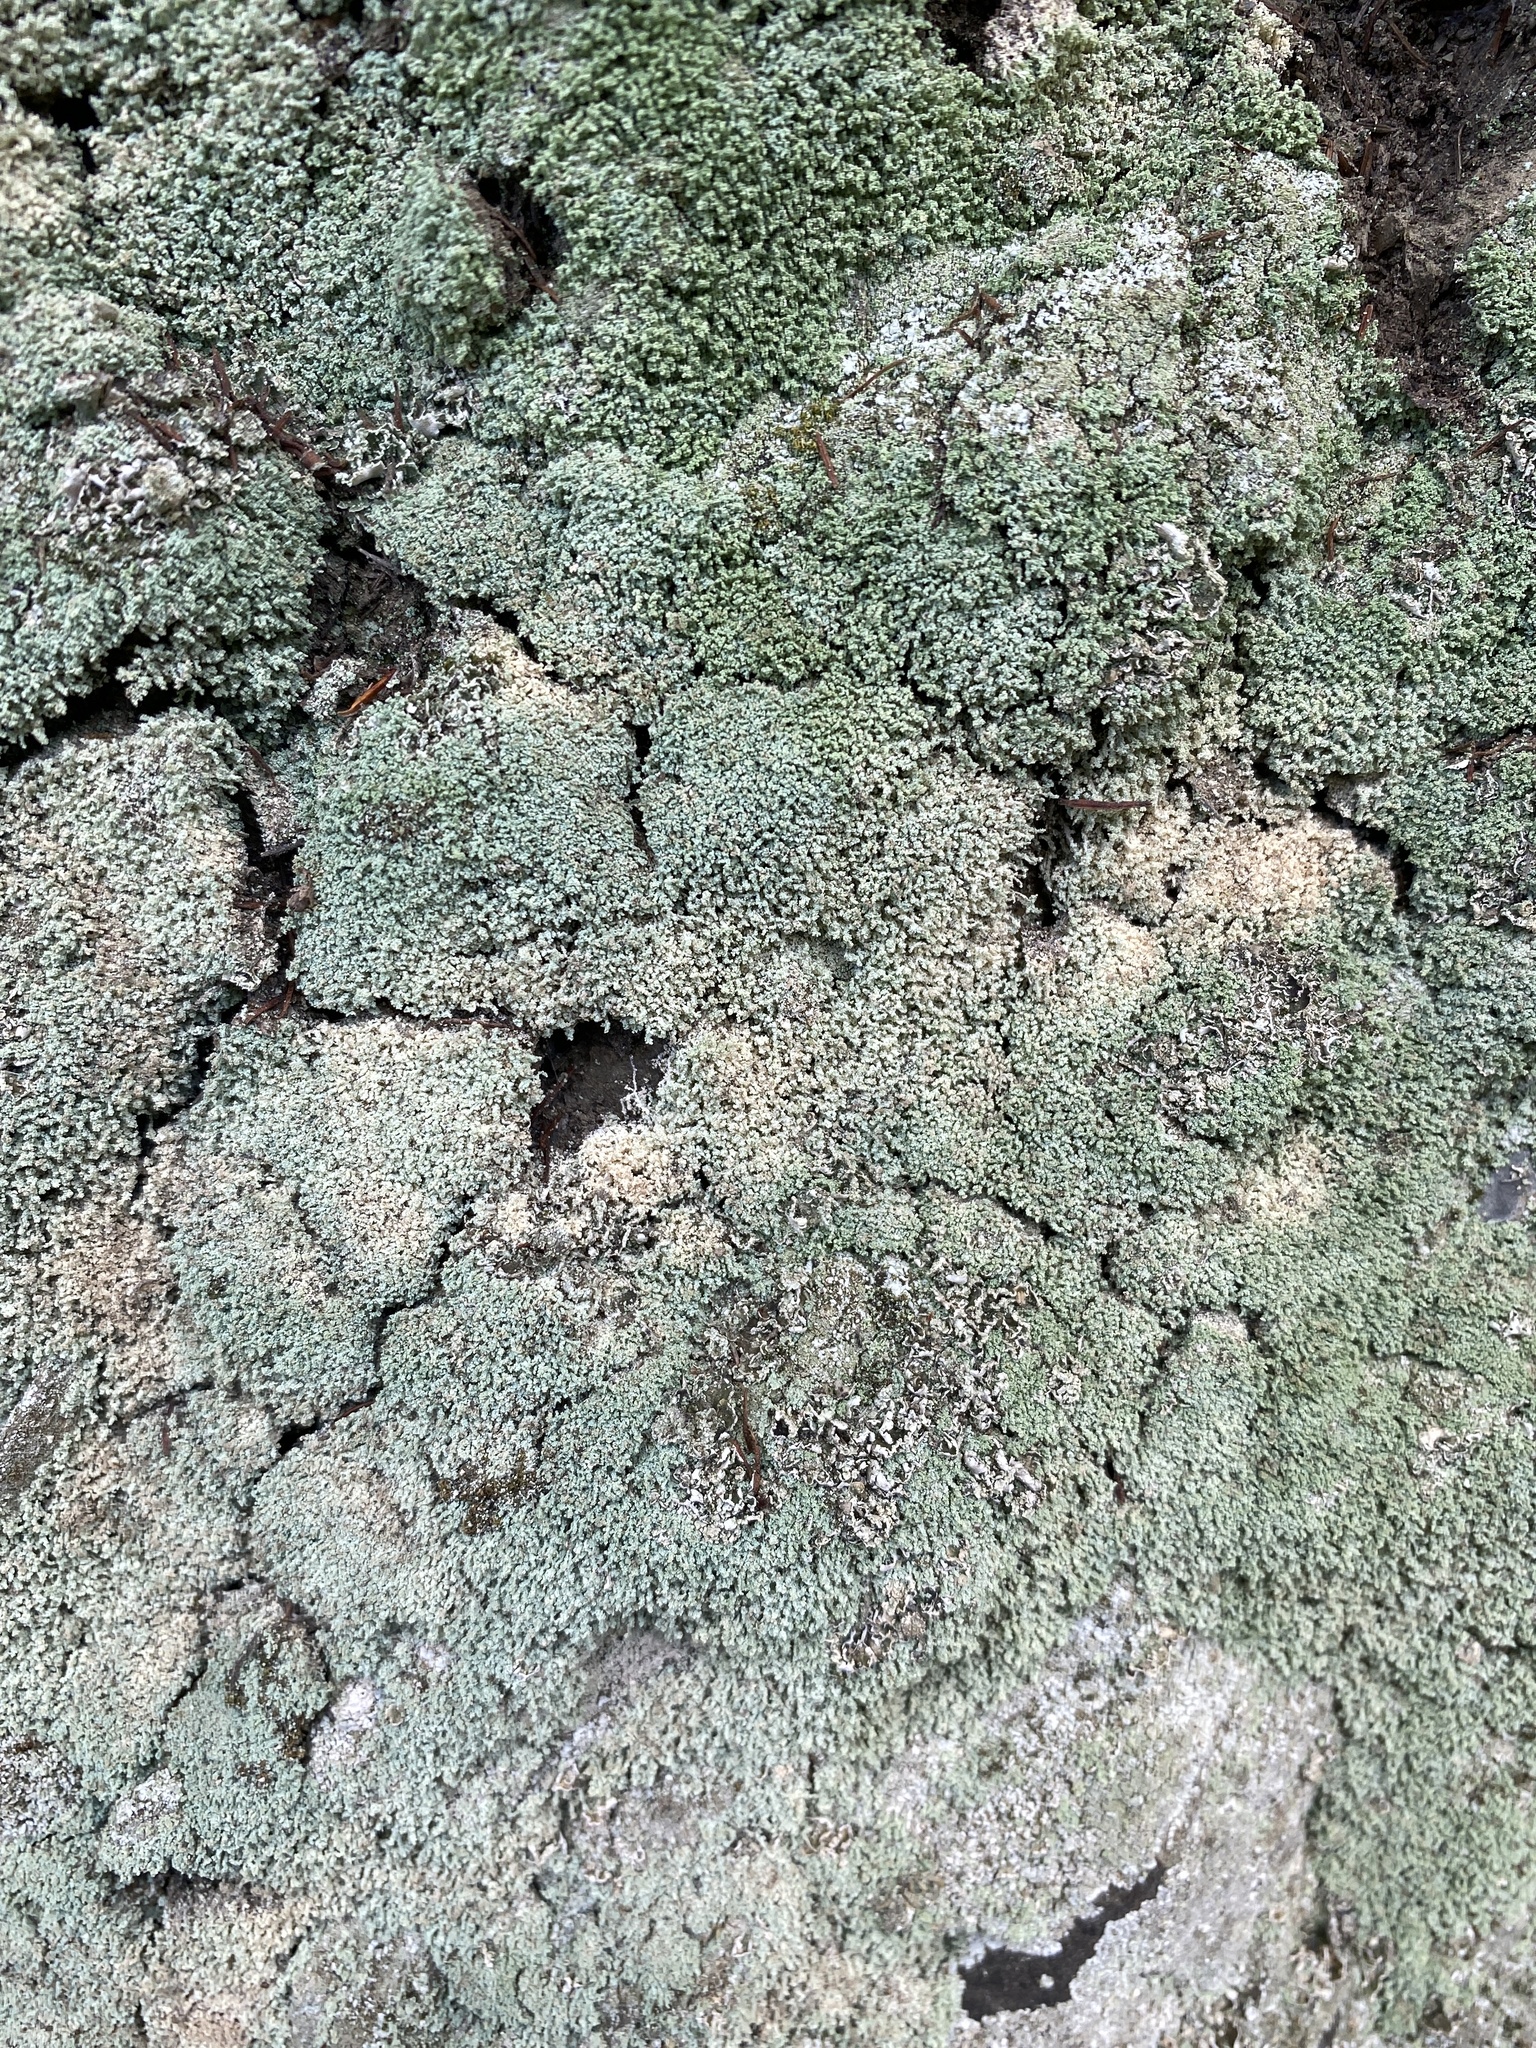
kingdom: Fungi
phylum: Ascomycota
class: Lecanoromycetes
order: Teloschistales
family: Leprocaulaceae
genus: Leprocaulon
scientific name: Leprocaulon quisquiliare
